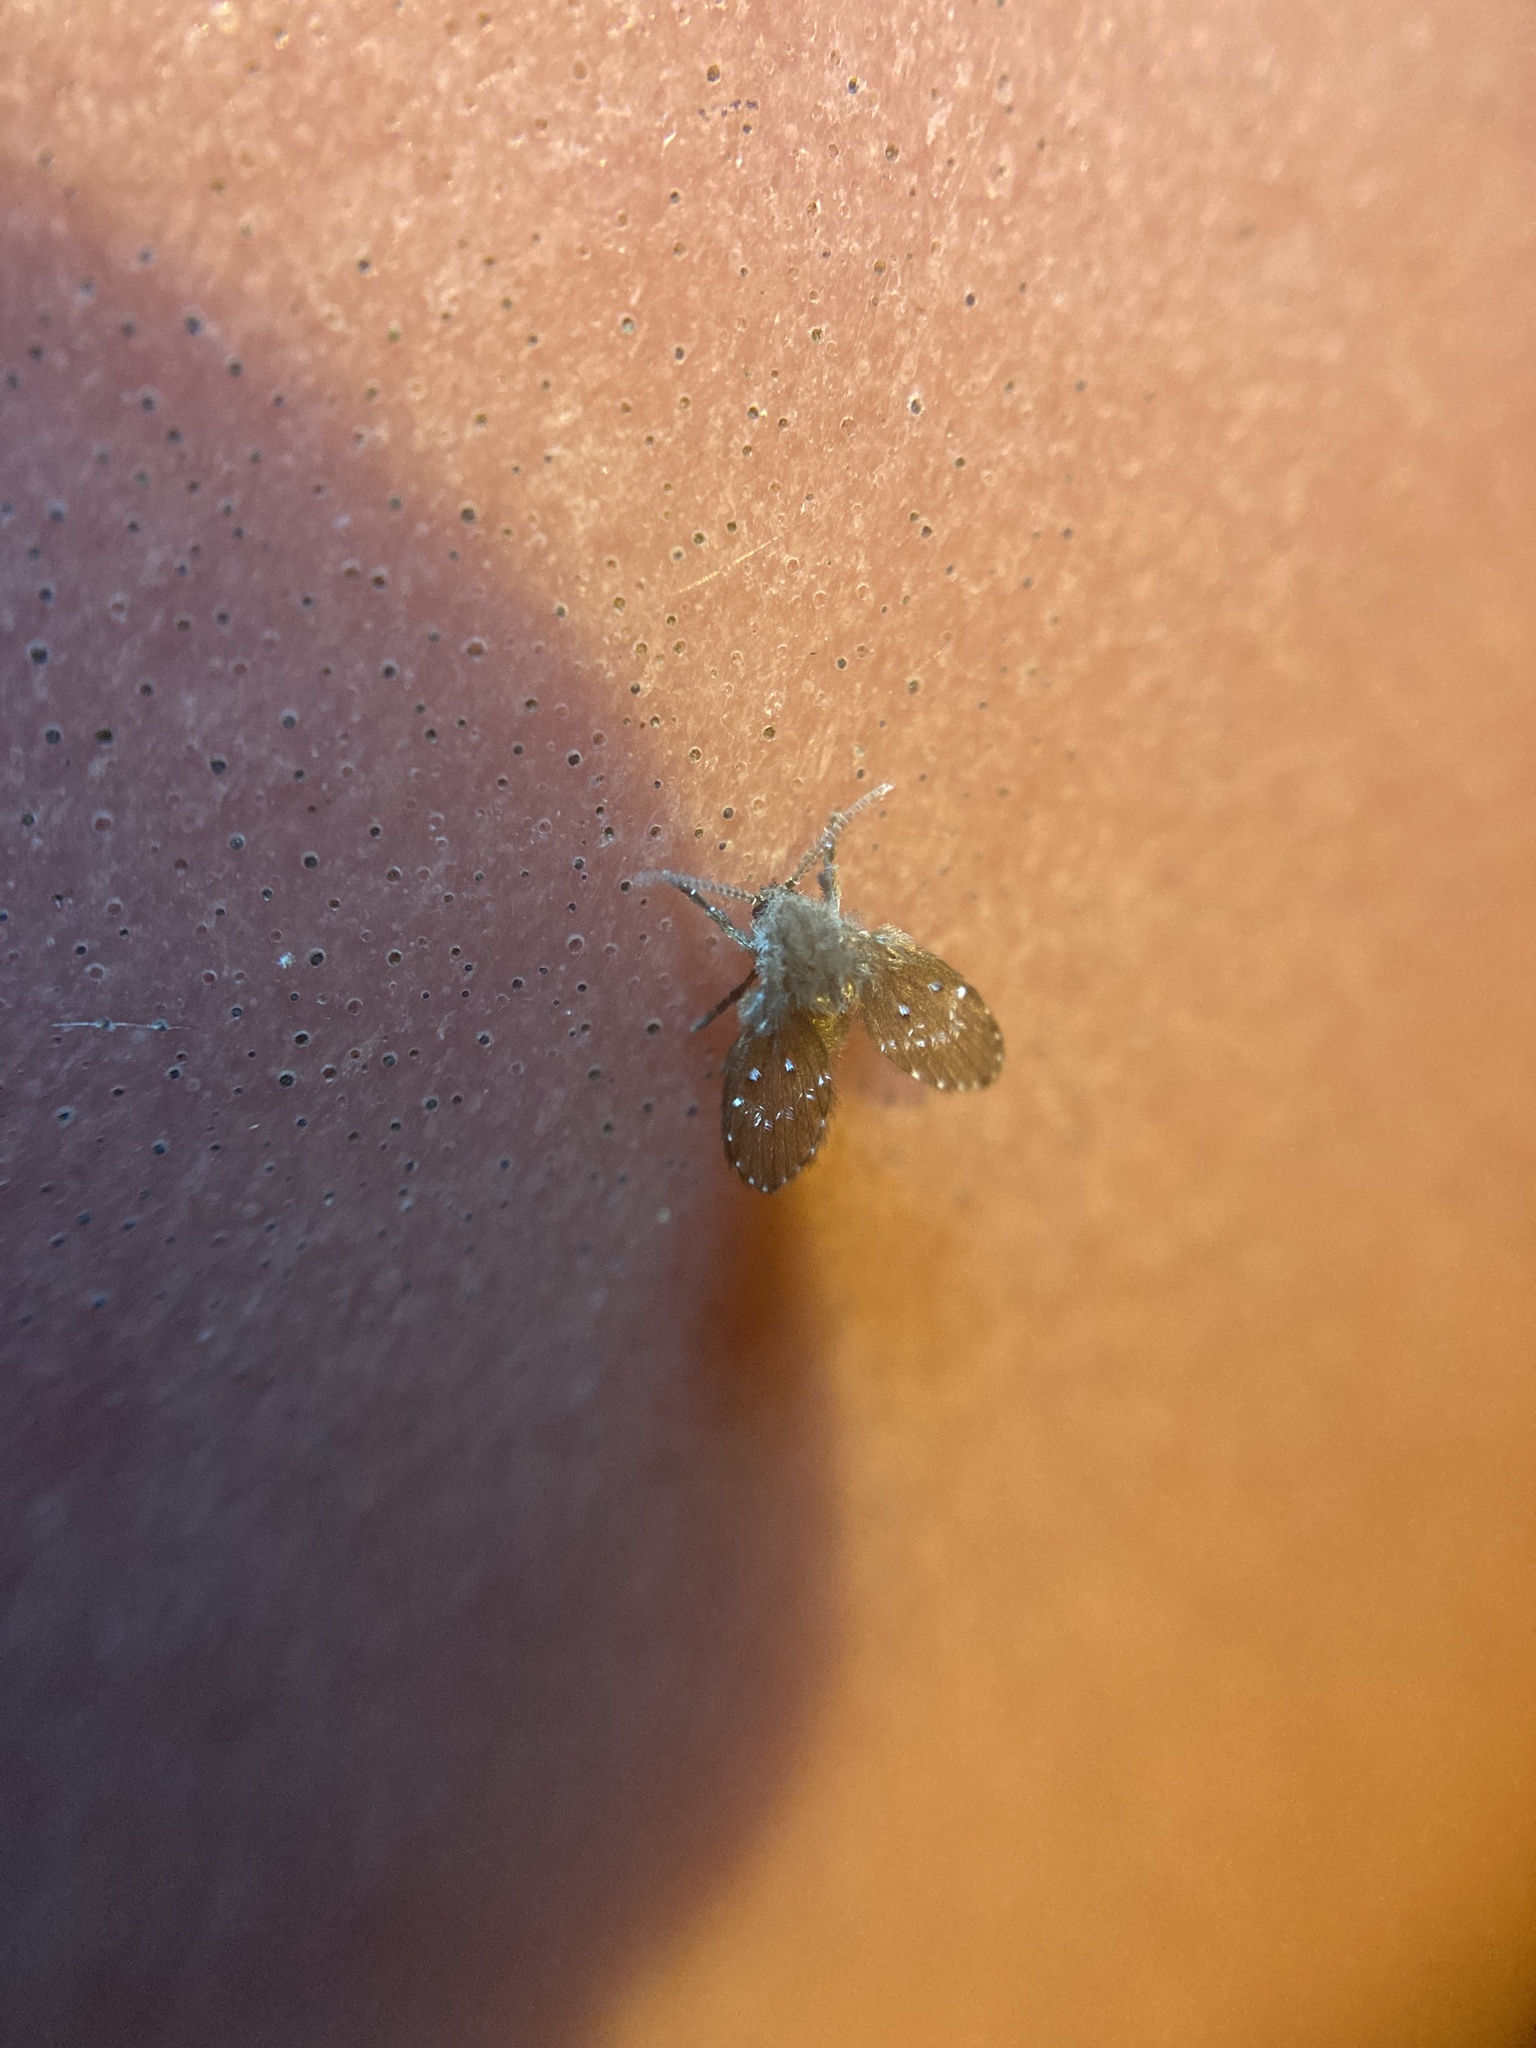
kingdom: Animalia
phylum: Arthropoda
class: Insecta
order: Diptera
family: Psychodidae
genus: Clogmia
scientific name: Clogmia albipunctatus
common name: White-spotted moth fly
